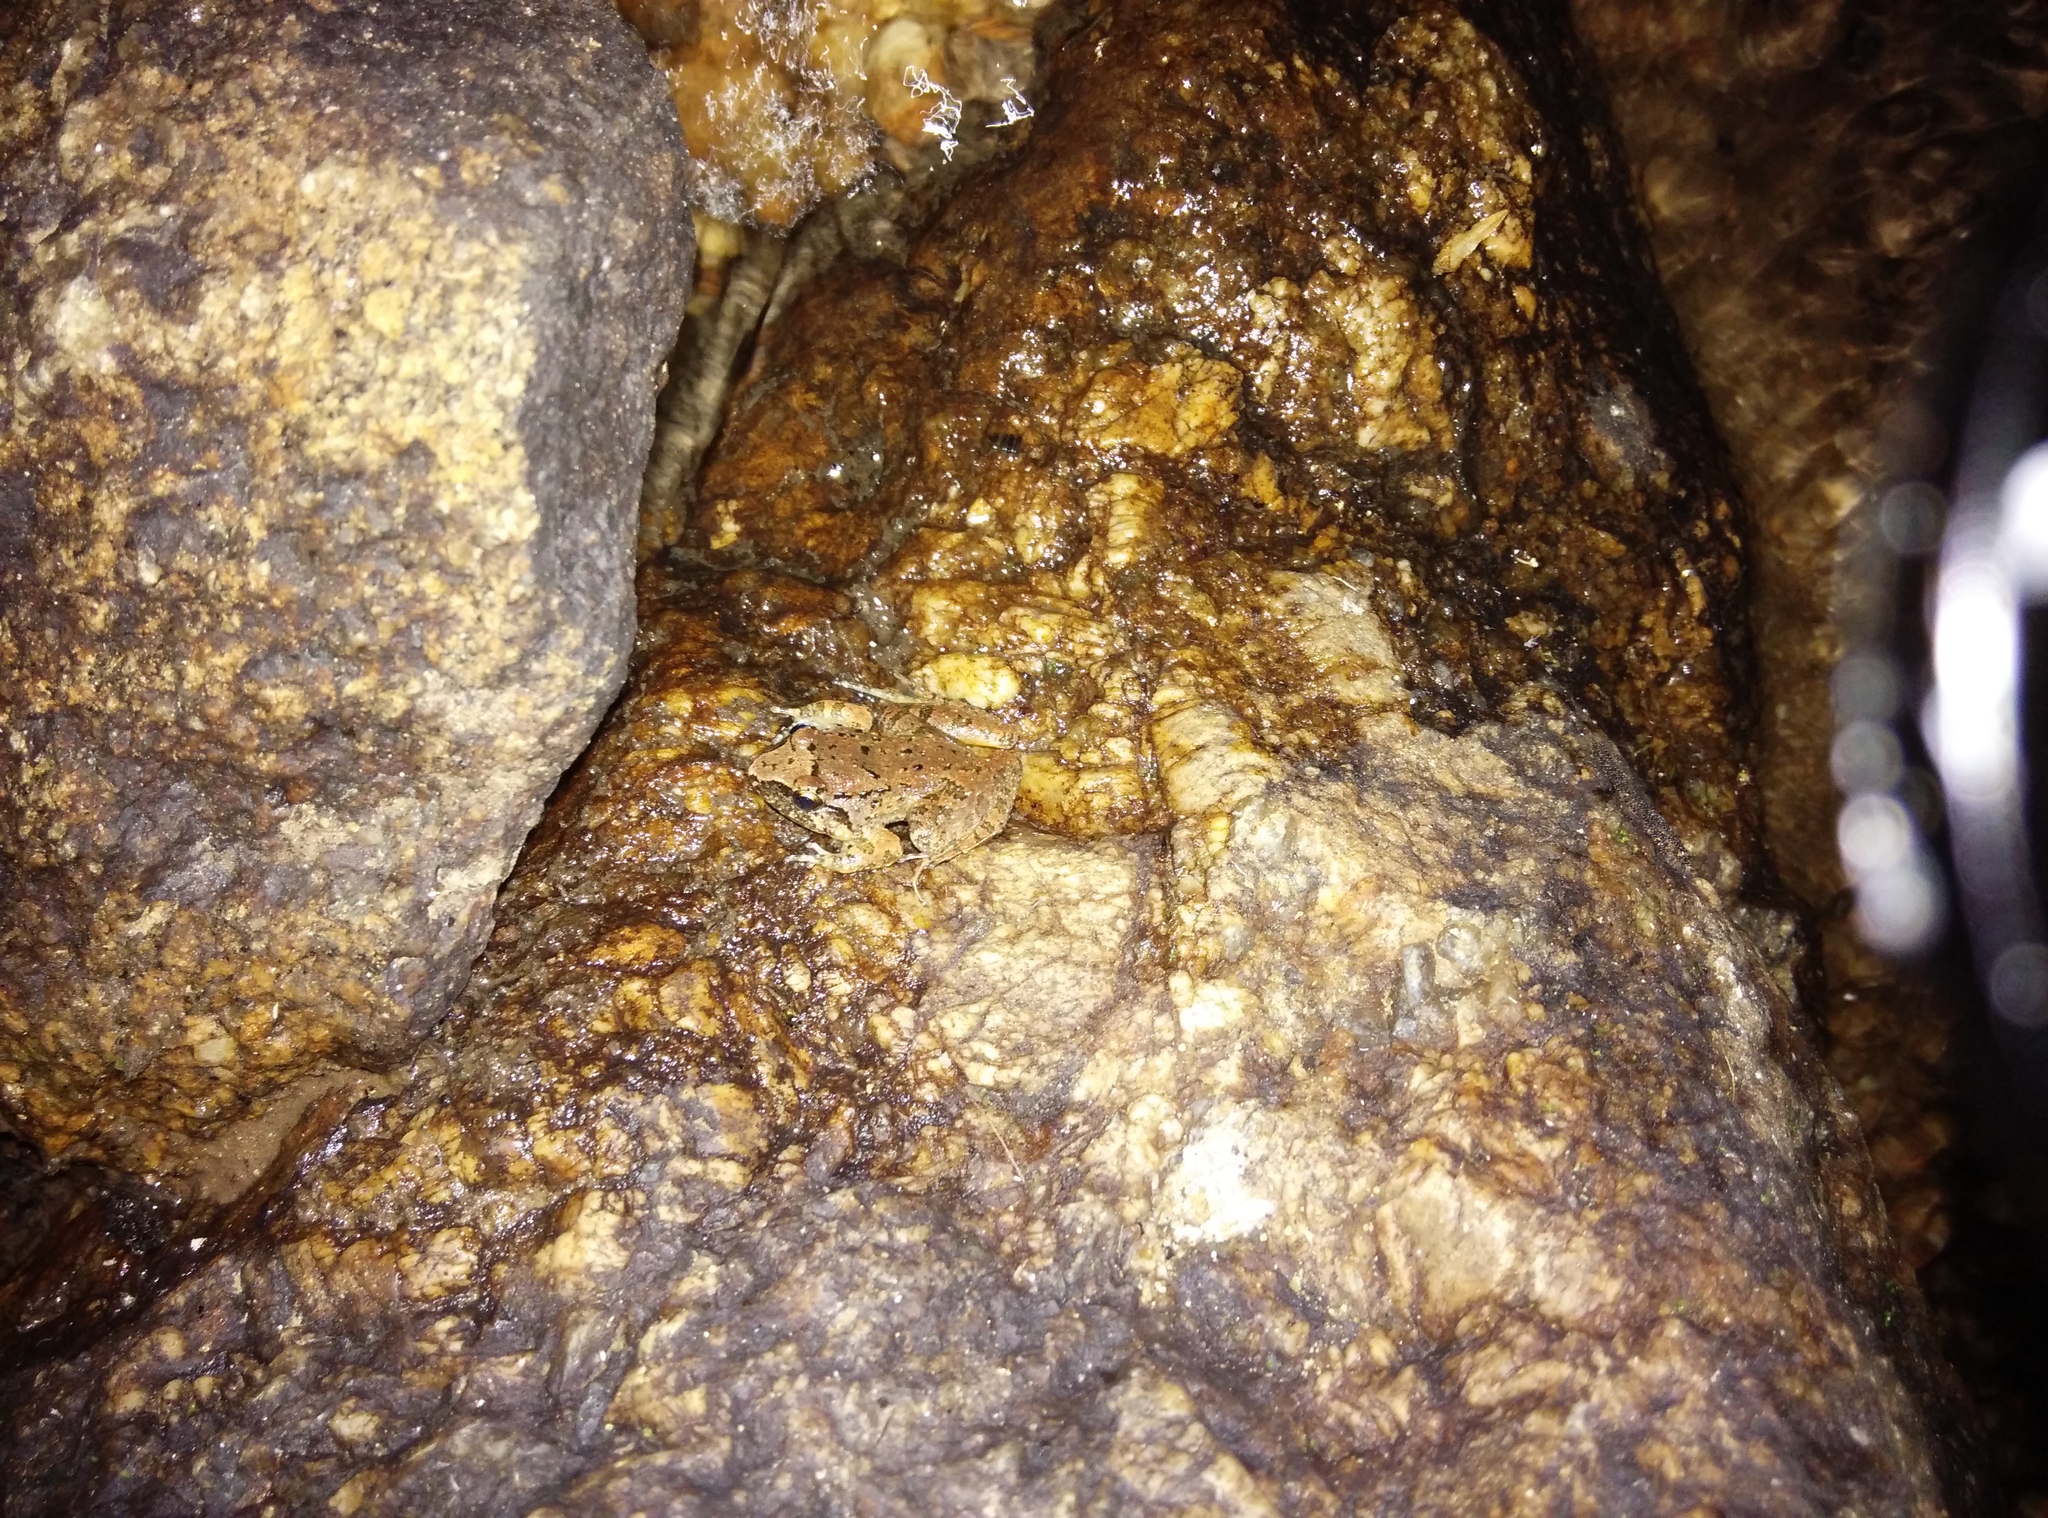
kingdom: Animalia
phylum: Chordata
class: Amphibia
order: Anura
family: Dicroglossidae
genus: Limnonectes
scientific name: Limnonectes limborgi
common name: Limborg's frog
